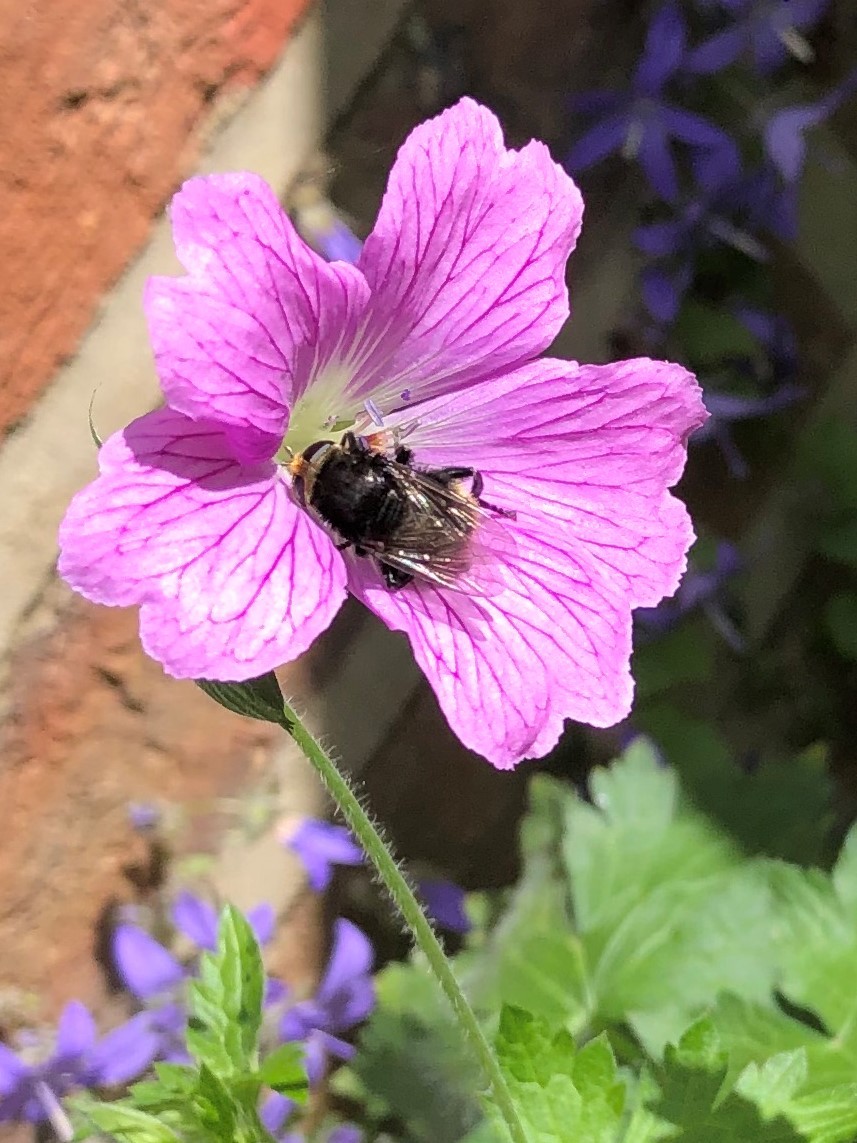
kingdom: Animalia
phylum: Arthropoda
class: Insecta
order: Diptera
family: Syrphidae
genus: Merodon
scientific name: Merodon equestris
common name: Greater bulb-fly
